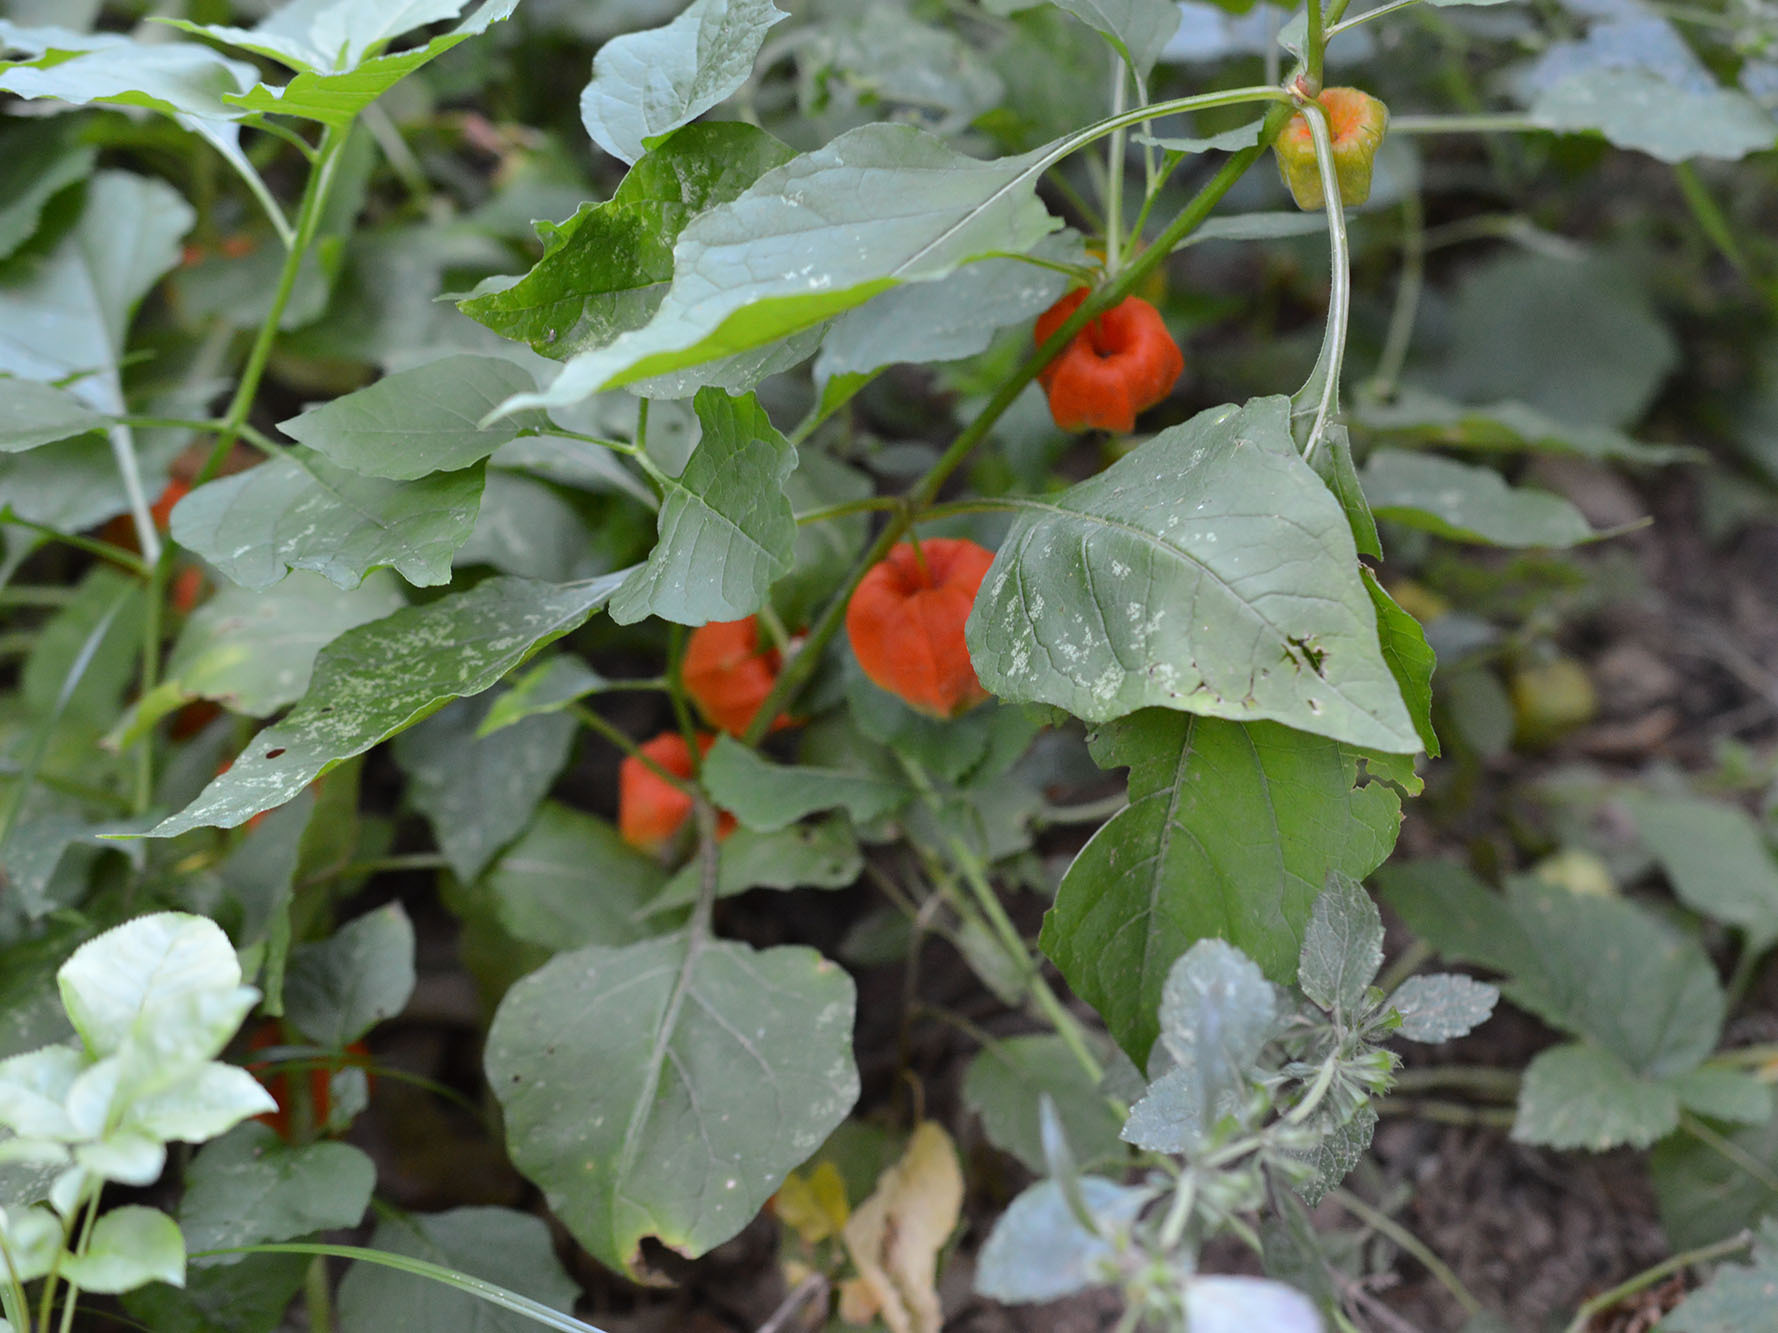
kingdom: Plantae
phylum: Tracheophyta
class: Magnoliopsida
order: Solanales
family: Solanaceae
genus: Alkekengi
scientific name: Alkekengi officinarum
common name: Japanese-lantern
